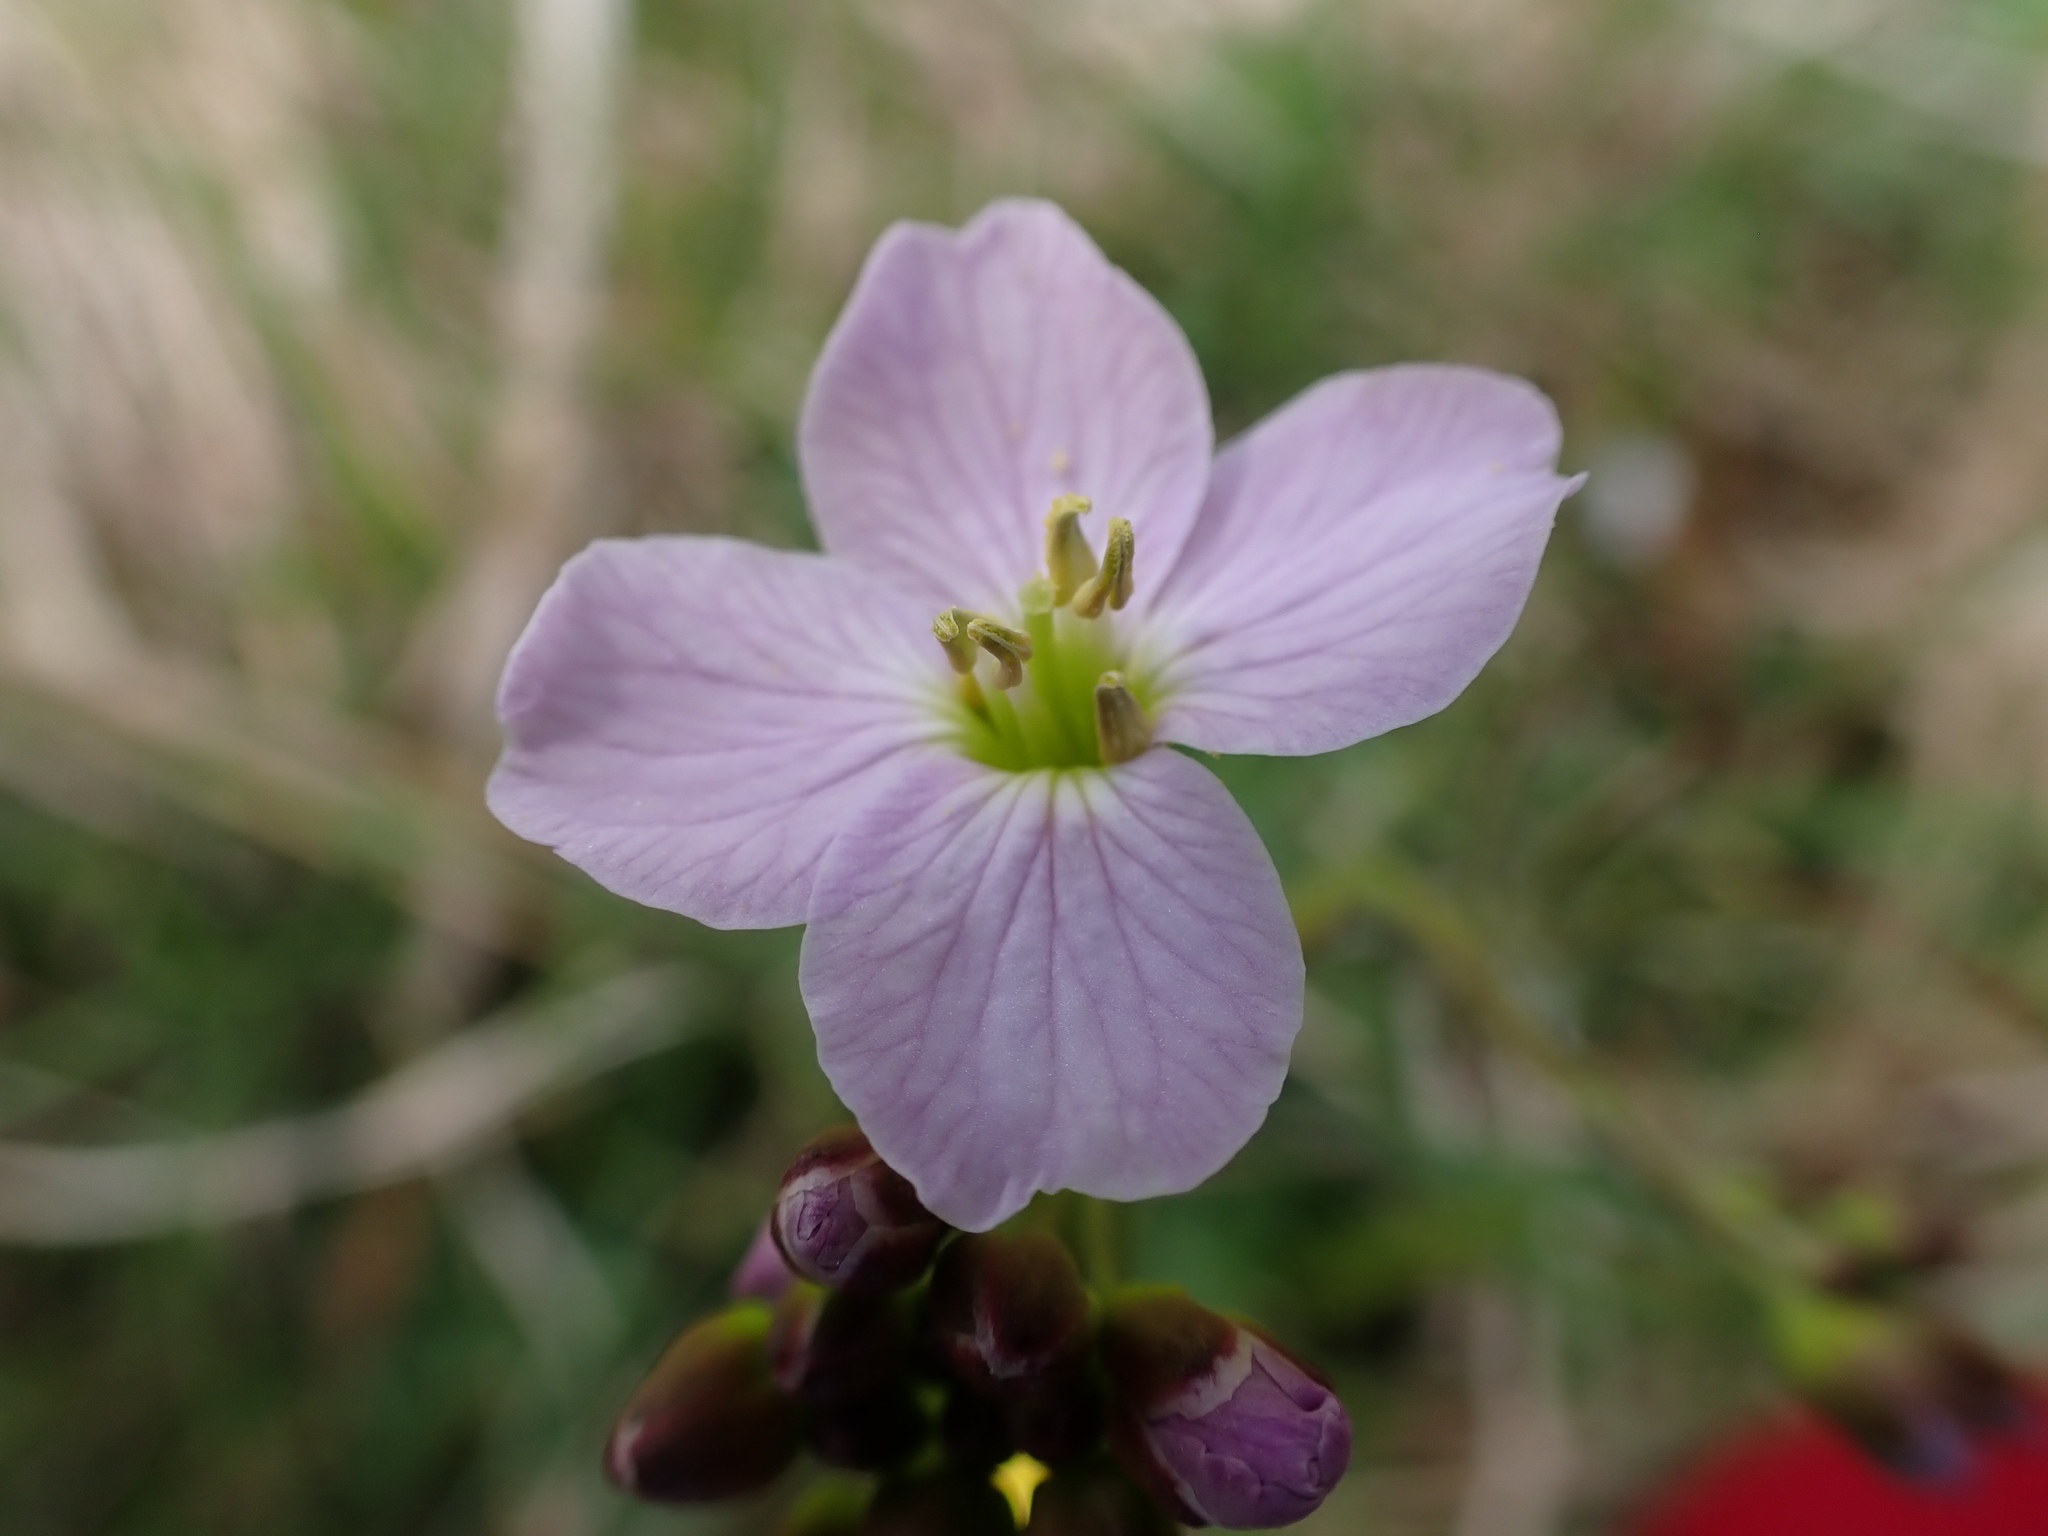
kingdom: Plantae
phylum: Tracheophyta
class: Magnoliopsida
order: Brassicales
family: Brassicaceae
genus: Cardamine
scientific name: Cardamine pratensis
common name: Cuckoo flower
